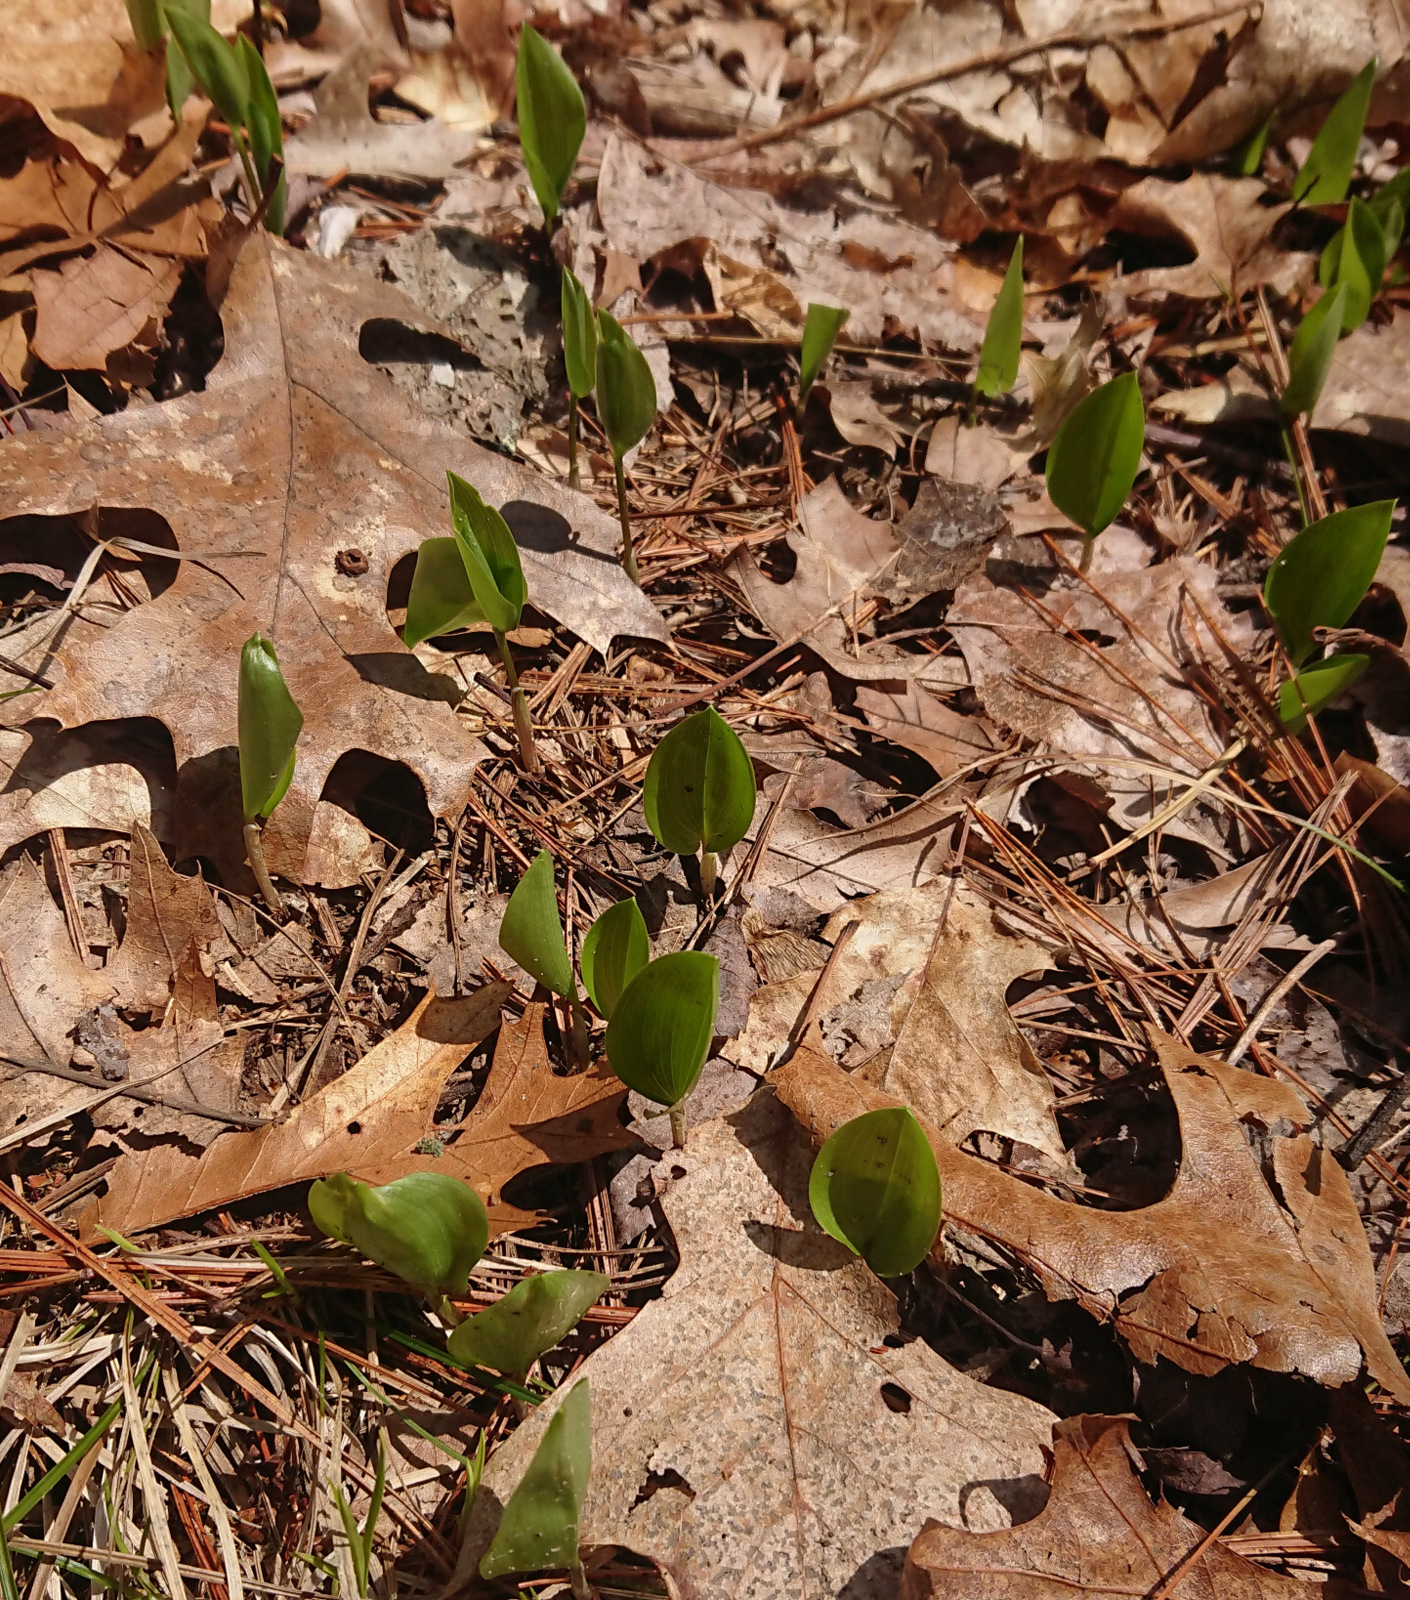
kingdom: Plantae
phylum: Tracheophyta
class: Liliopsida
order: Asparagales
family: Asparagaceae
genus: Maianthemum
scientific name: Maianthemum canadense
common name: False lily-of-the-valley
